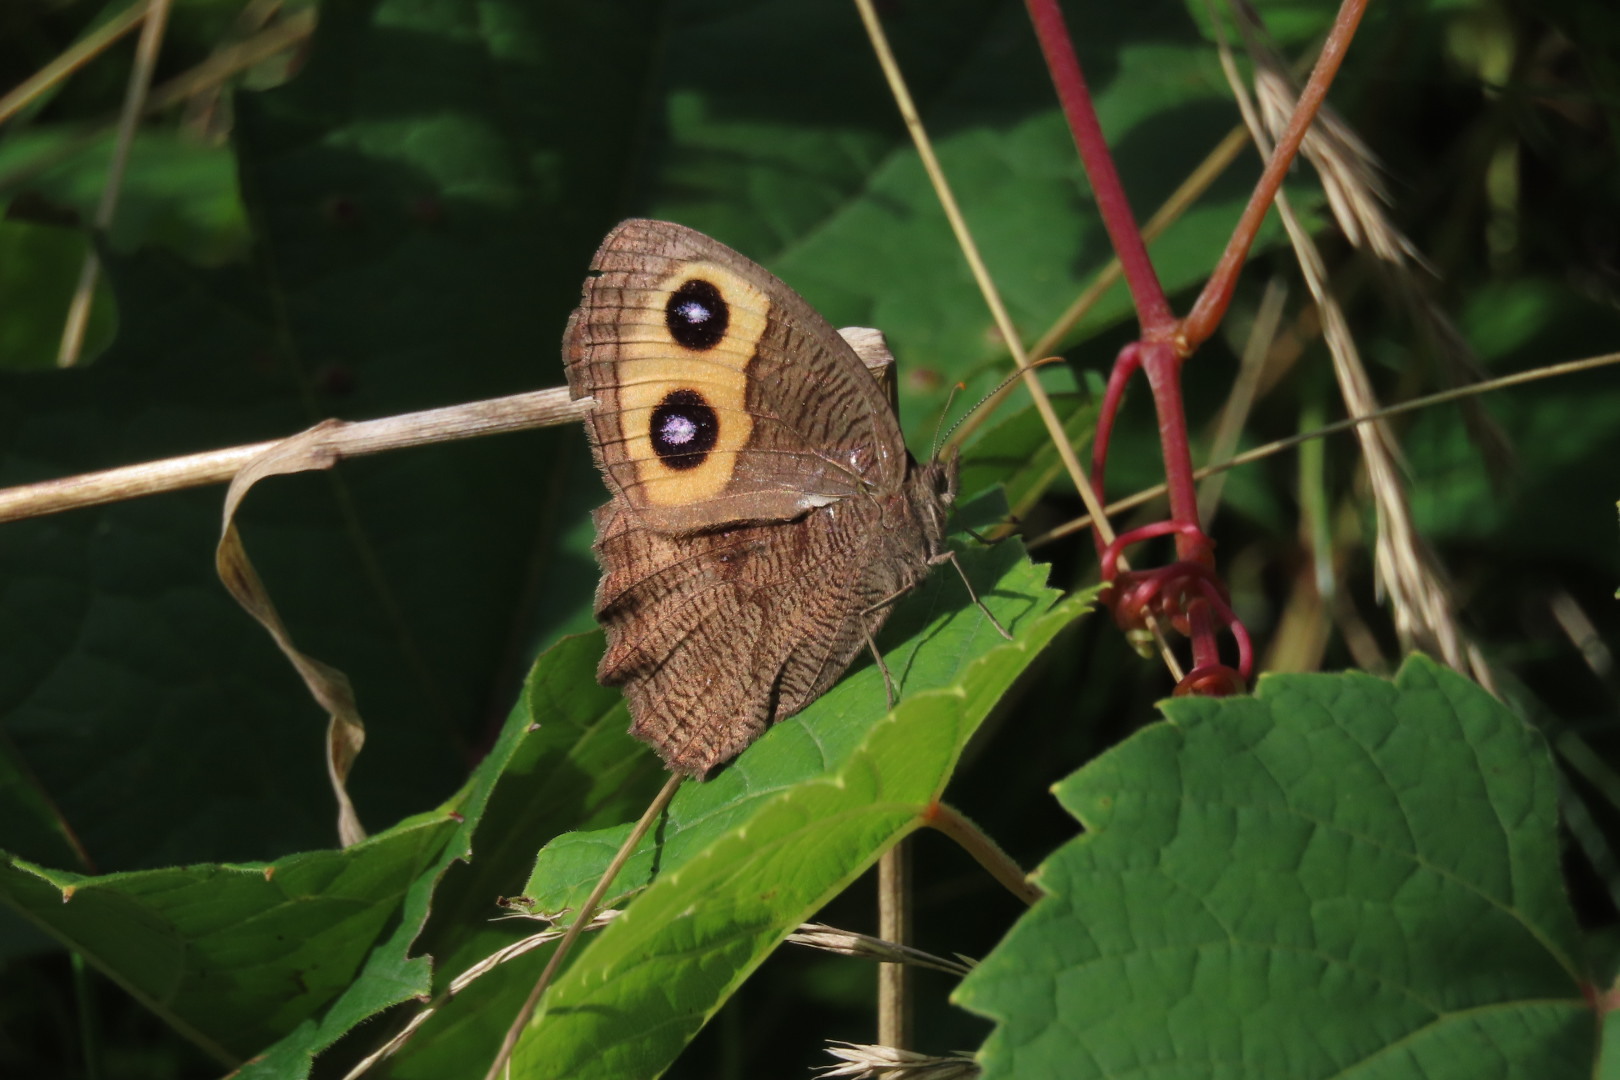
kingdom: Animalia
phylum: Arthropoda
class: Insecta
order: Lepidoptera
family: Nymphalidae
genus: Cercyonis
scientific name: Cercyonis pegala
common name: Common wood-nymph
